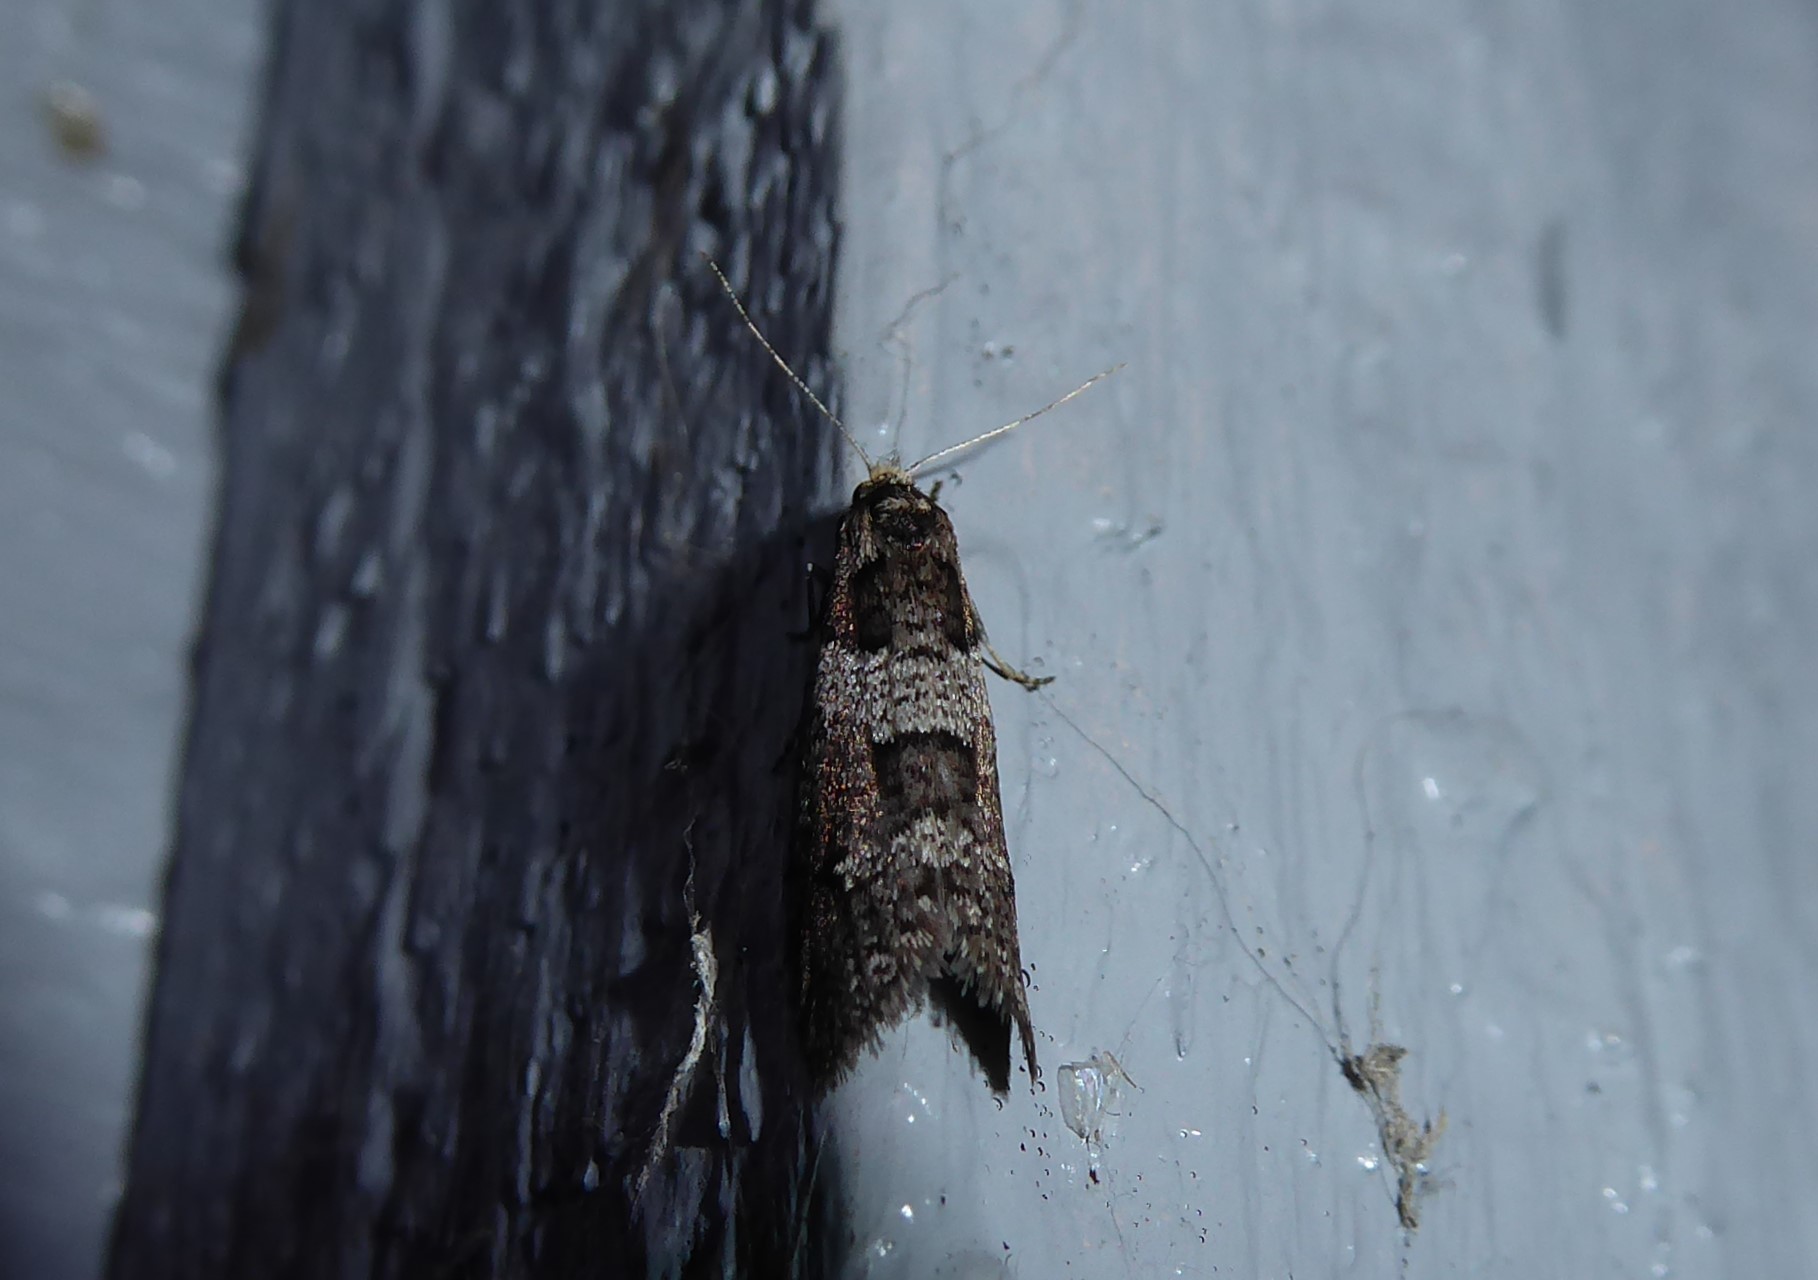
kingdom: Animalia
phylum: Arthropoda
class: Insecta
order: Lepidoptera
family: Psychidae
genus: Lepidoscia
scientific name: Lepidoscia heliochares
